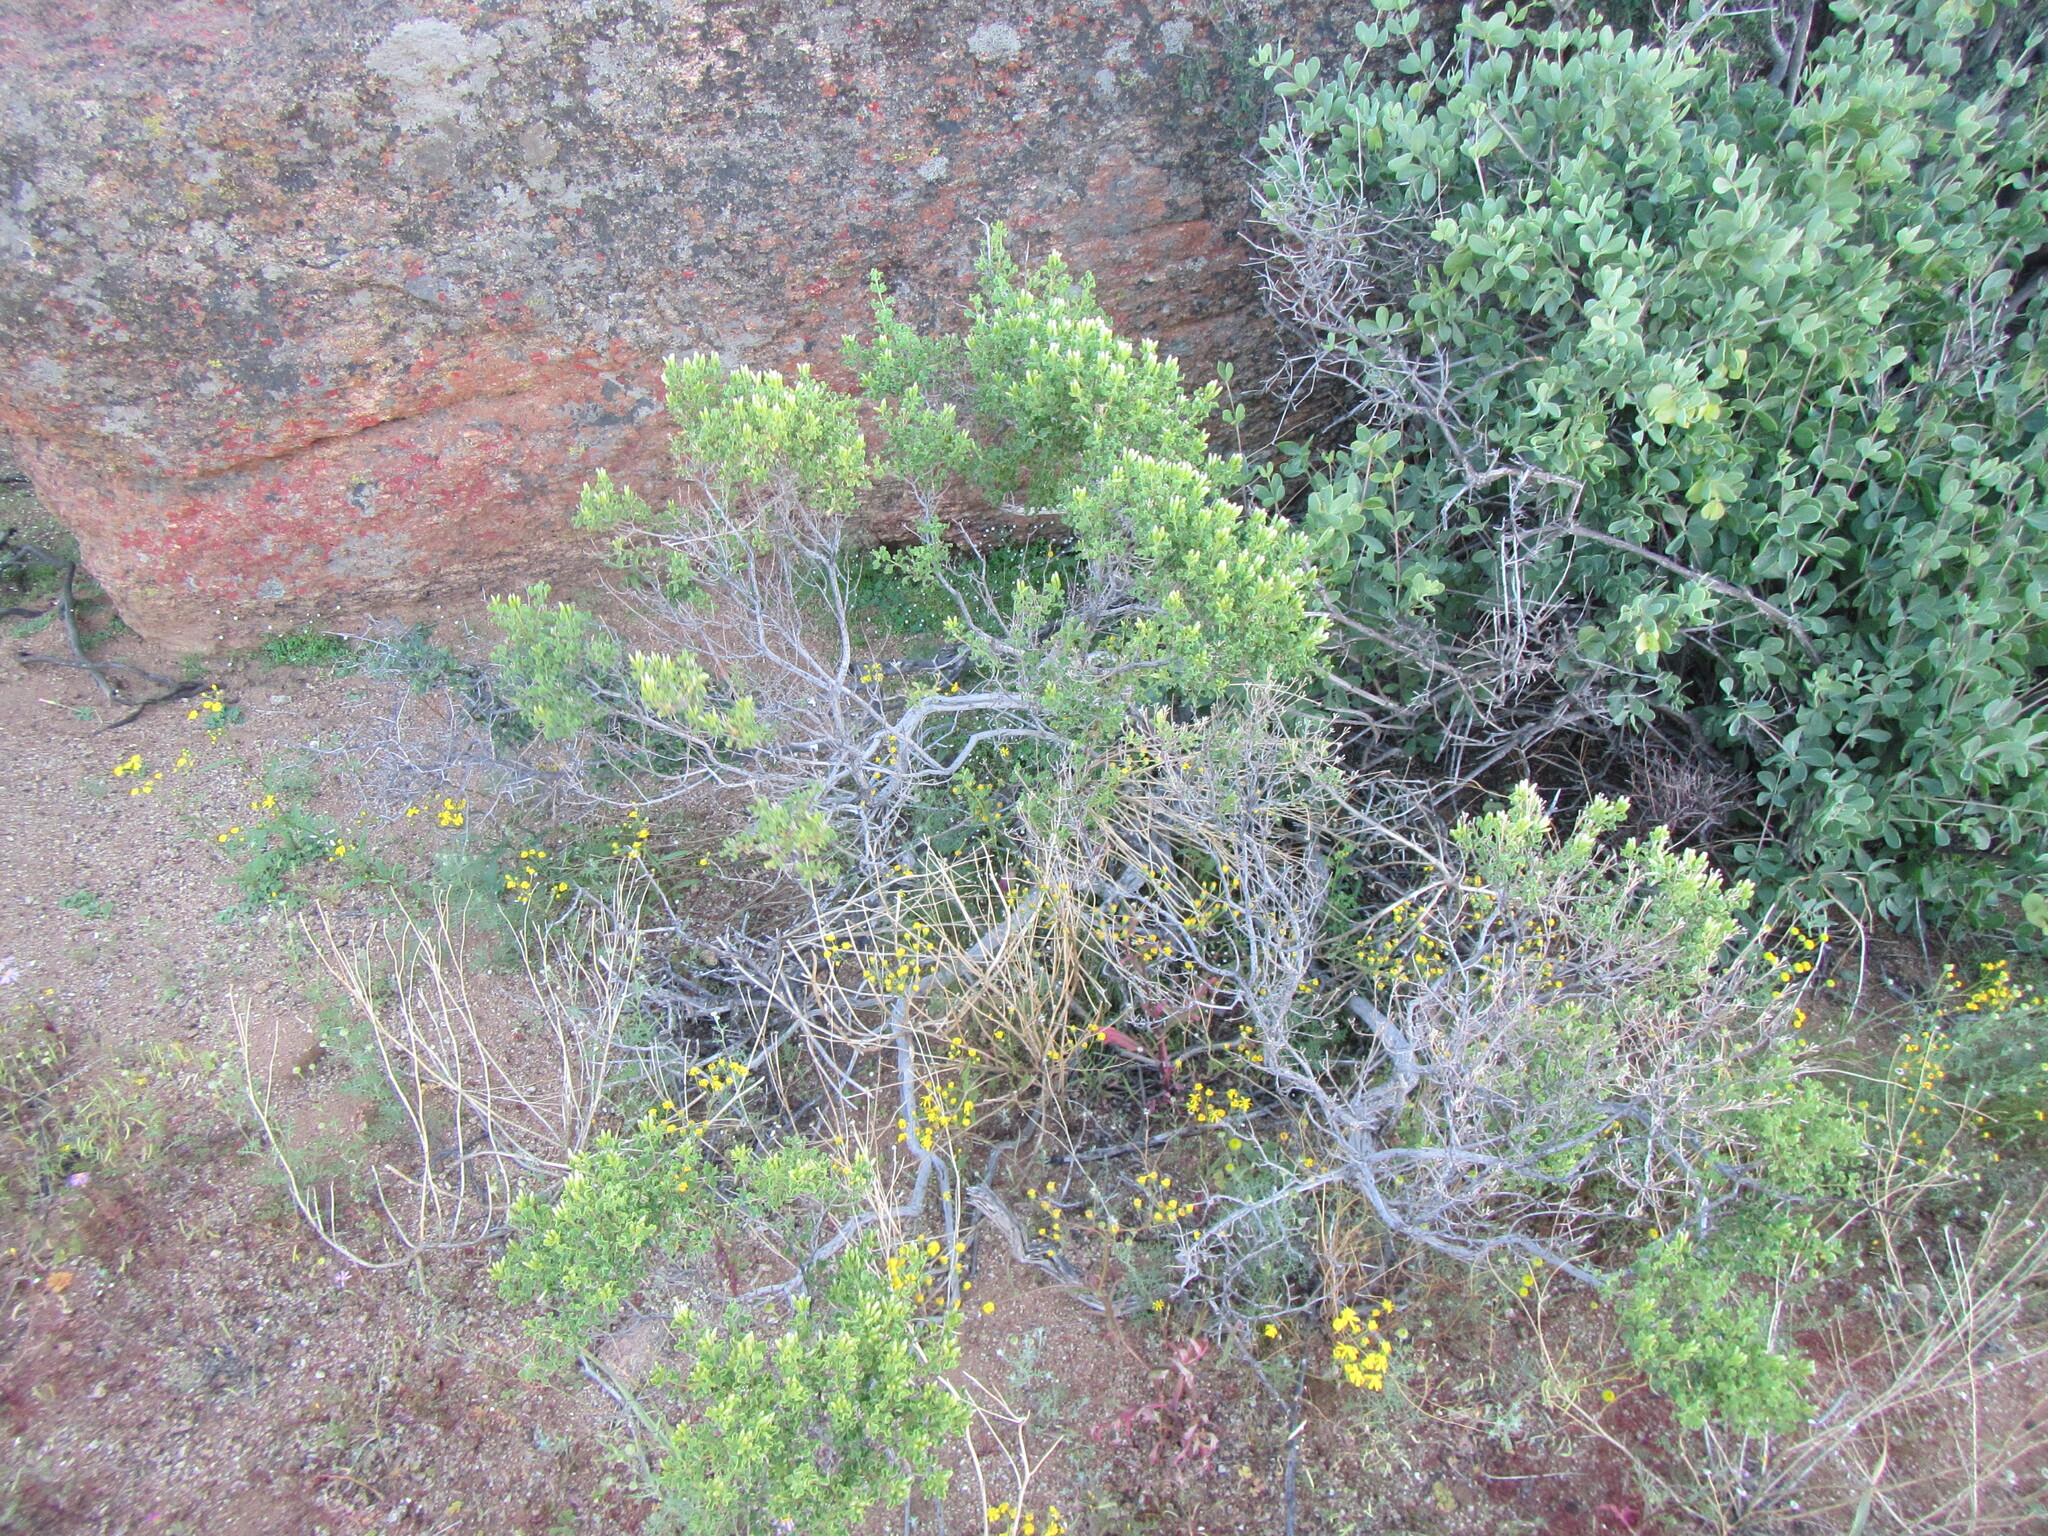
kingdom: Plantae
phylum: Tracheophyta
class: Magnoliopsida
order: Asterales
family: Asteraceae
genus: Pteronia
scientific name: Pteronia undulata
